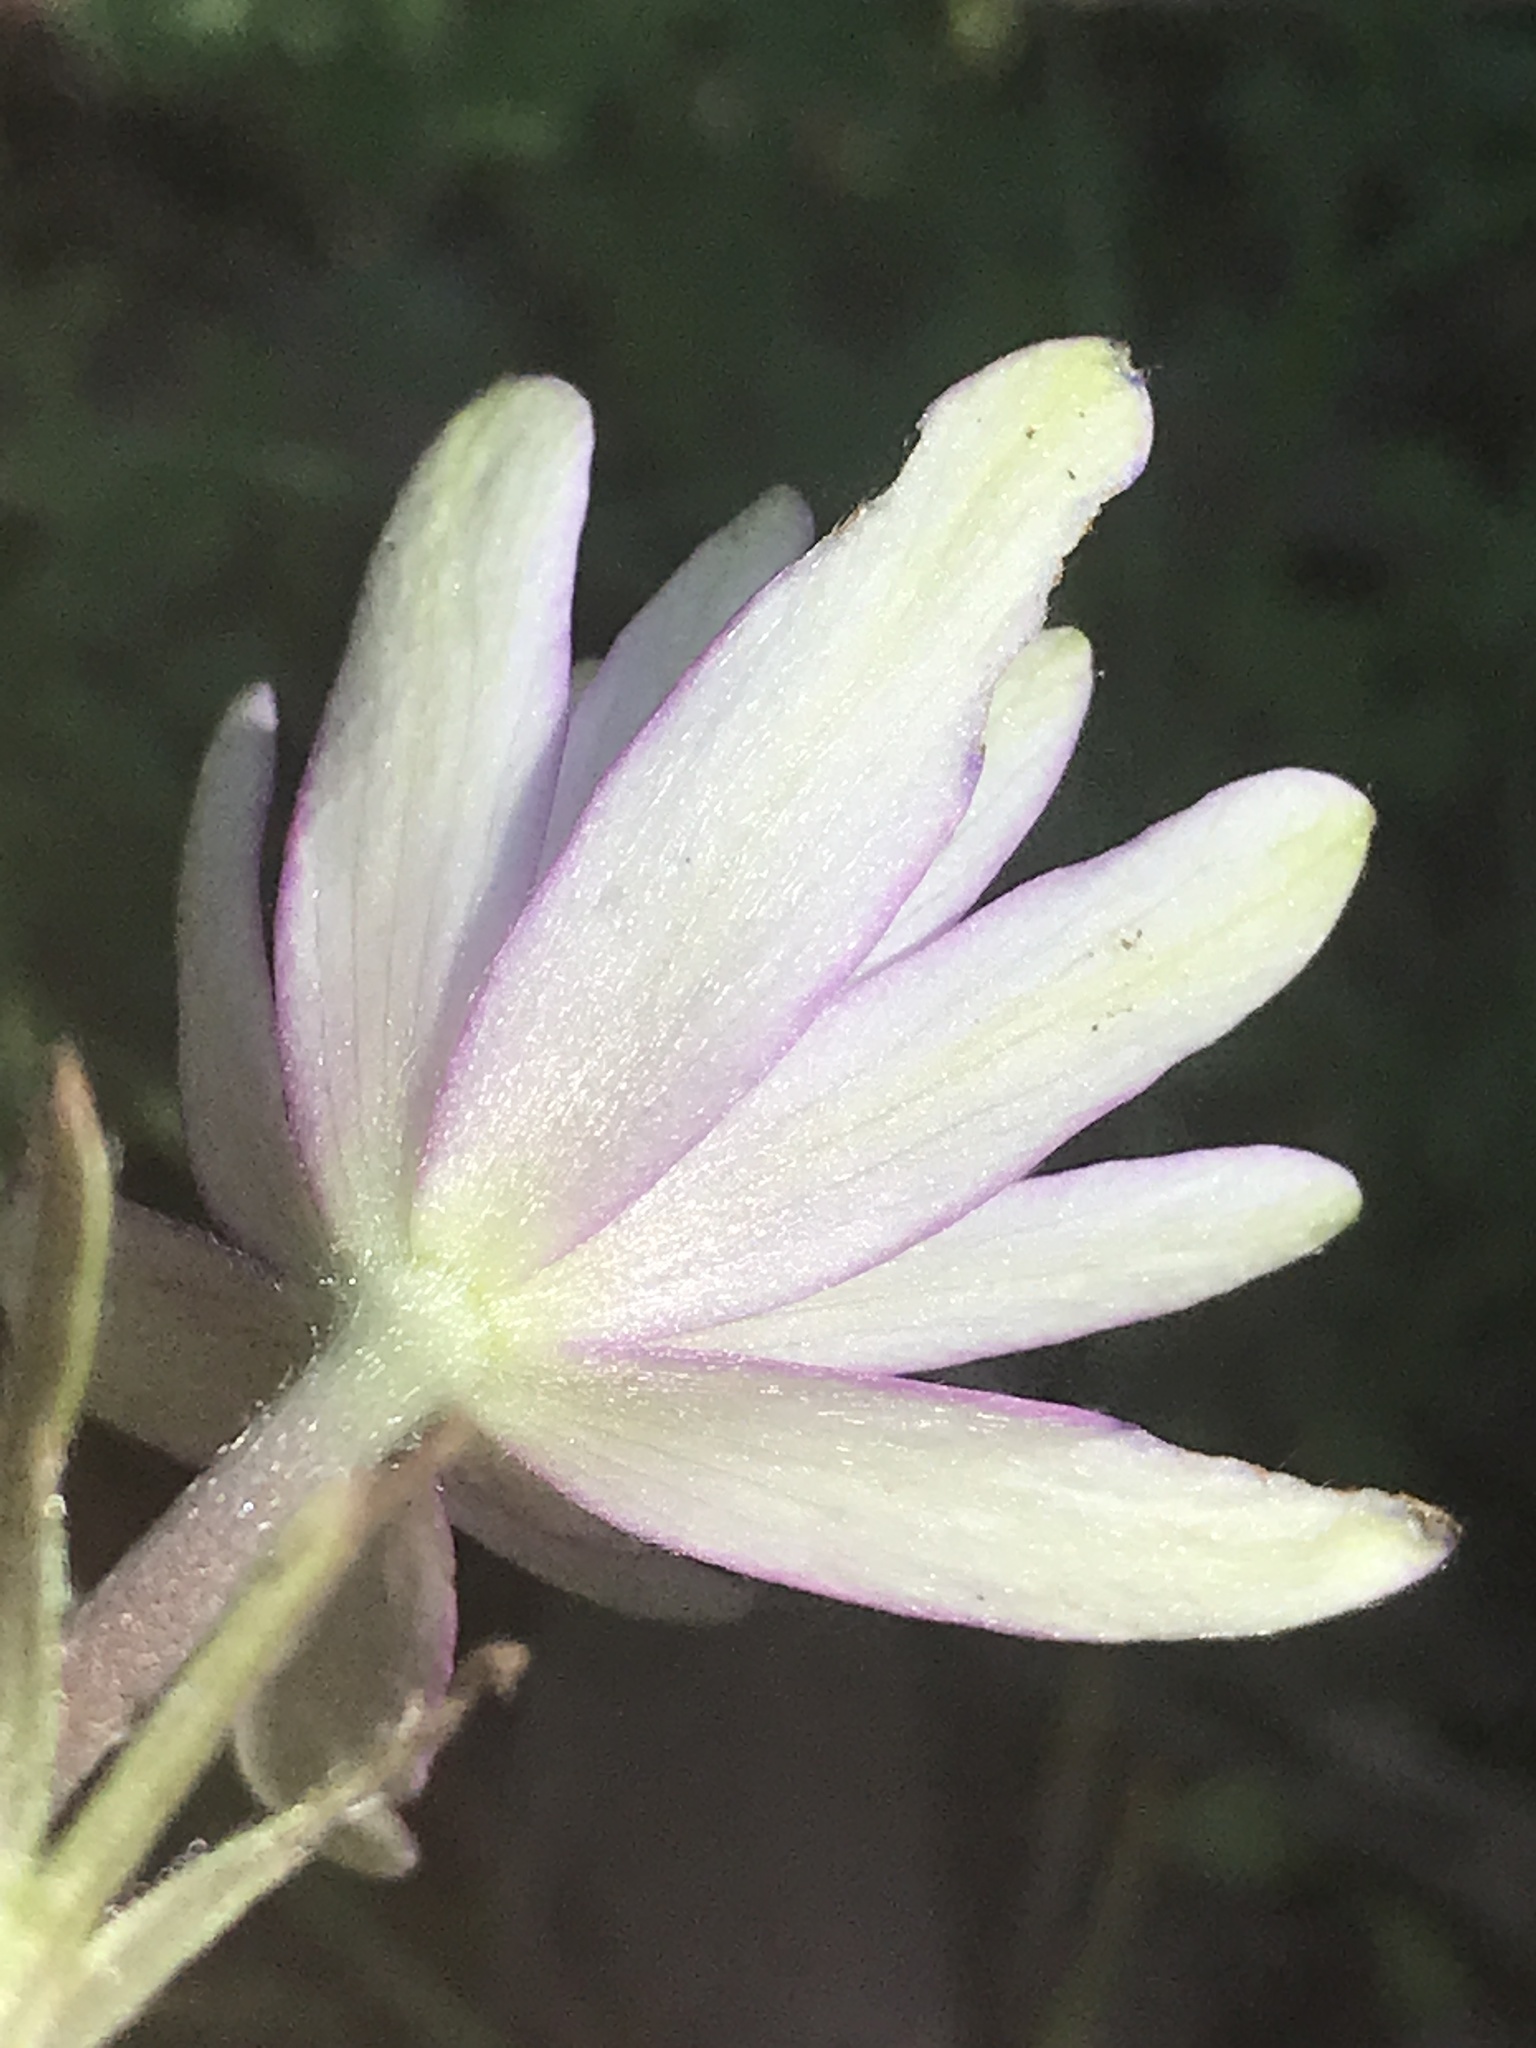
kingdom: Plantae
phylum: Tracheophyta
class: Magnoliopsida
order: Ranunculales
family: Ranunculaceae
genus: Anemone
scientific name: Anemone berlandieri
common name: Ten-petal anemone
